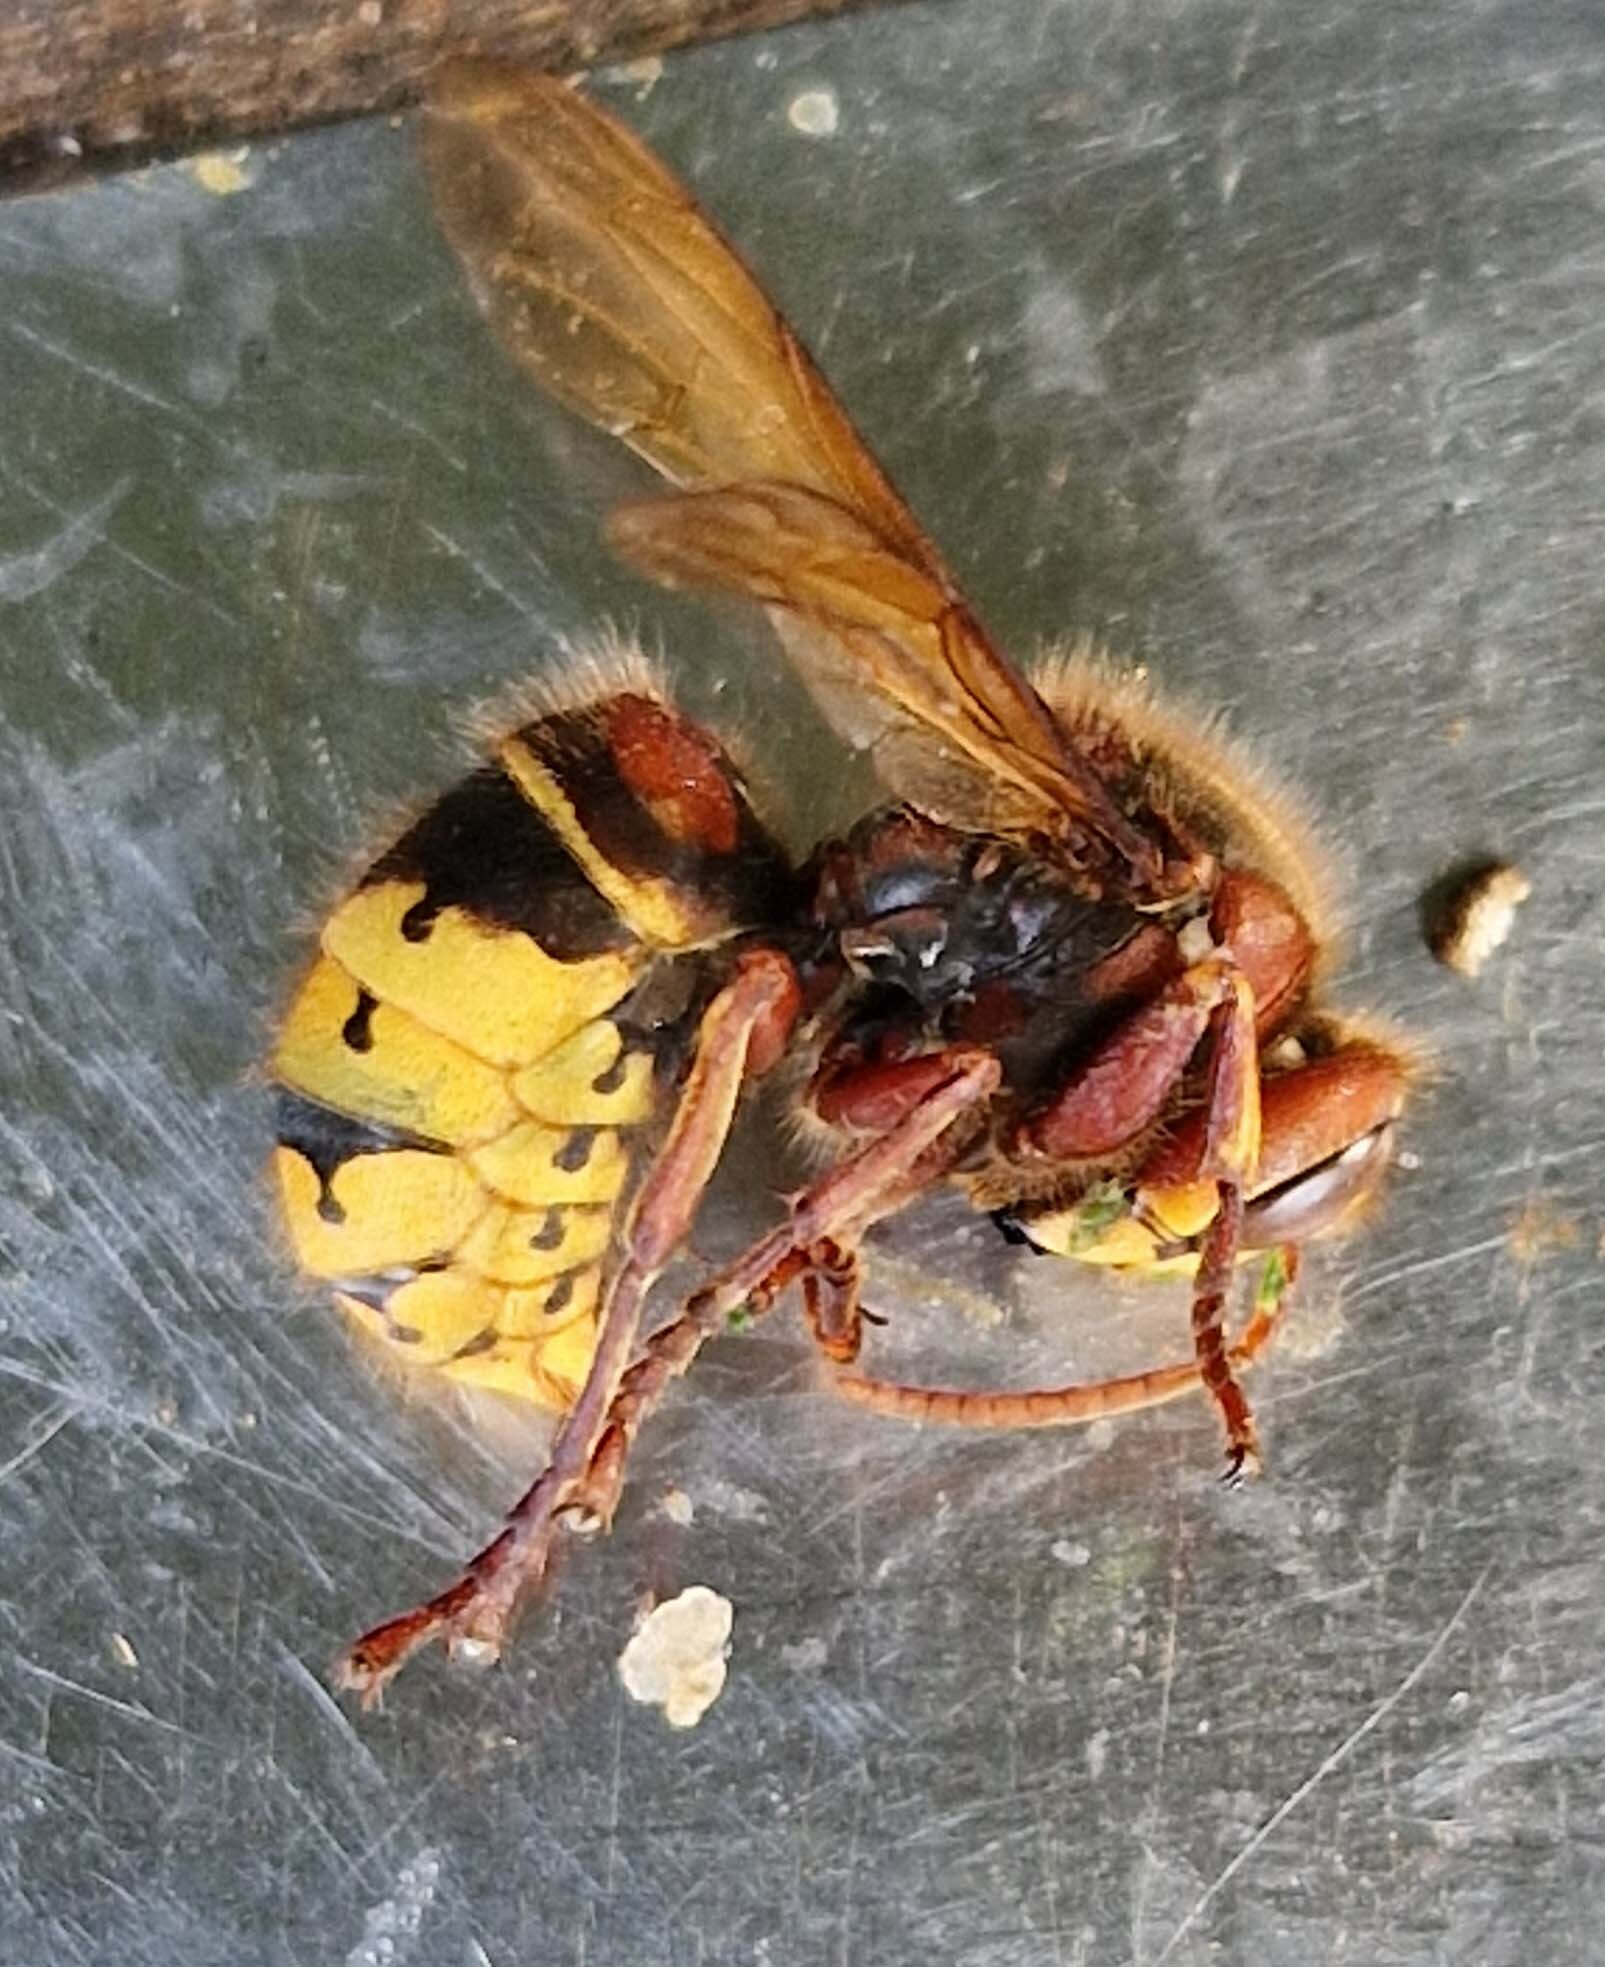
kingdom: Animalia
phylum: Arthropoda
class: Insecta
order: Hymenoptera
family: Vespidae
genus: Vespa
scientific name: Vespa crabro
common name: Hornet
